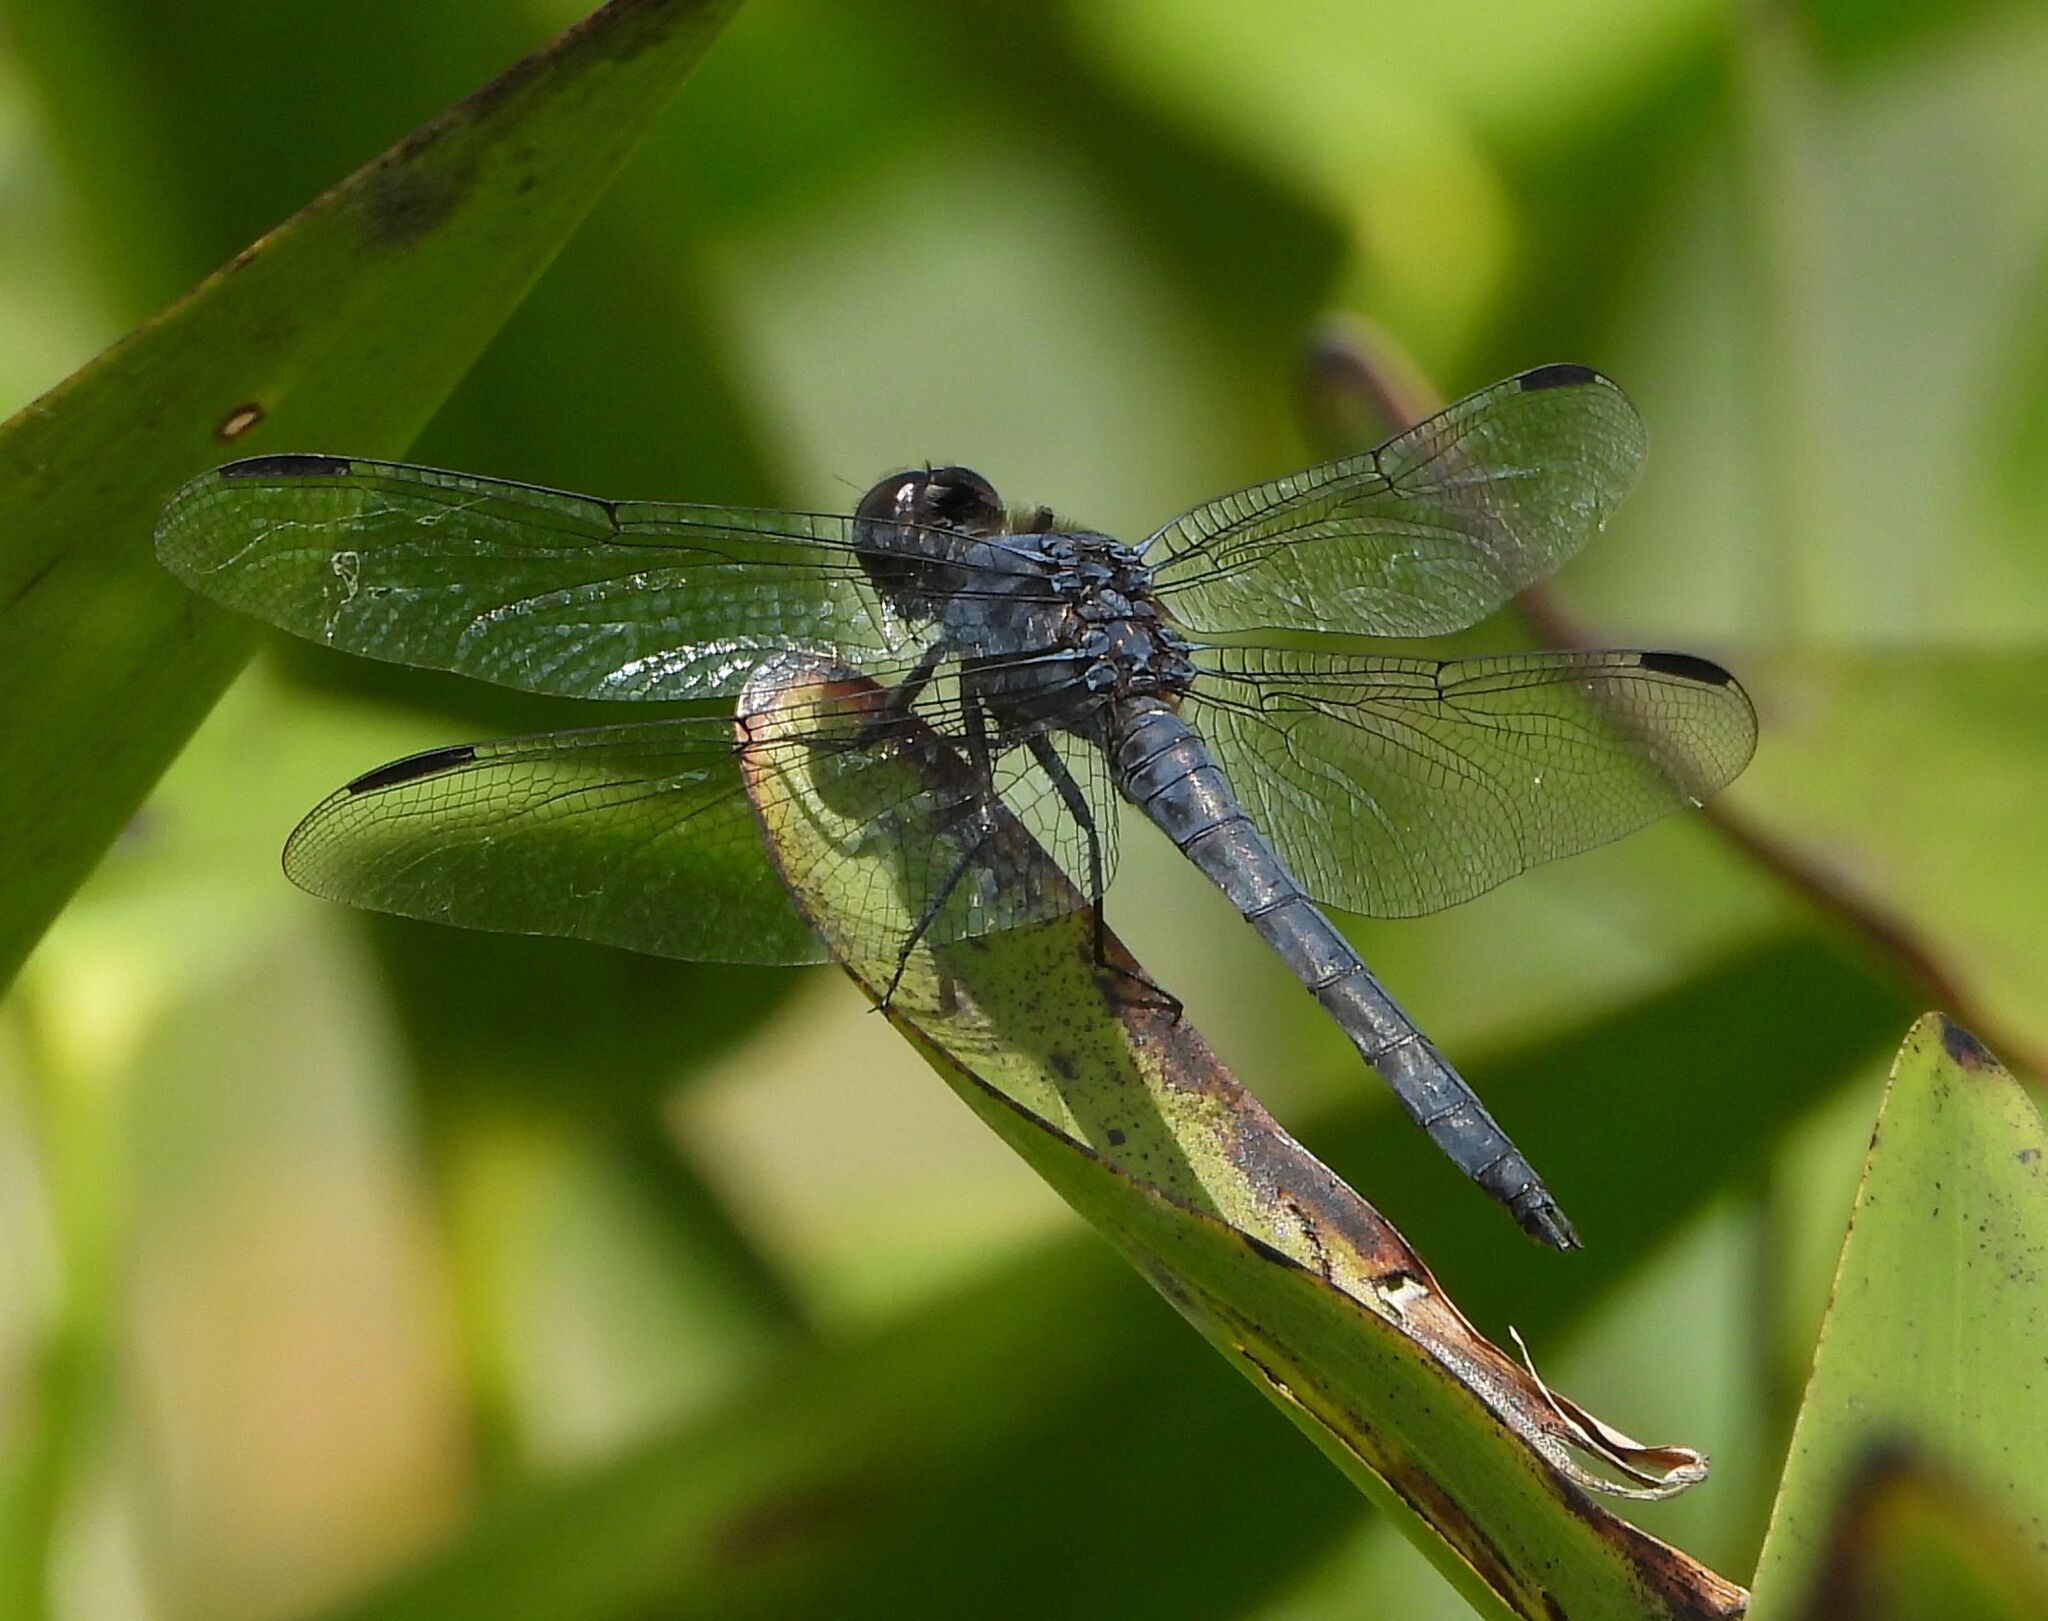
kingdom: Animalia
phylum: Arthropoda
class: Insecta
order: Odonata
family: Libellulidae
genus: Libellula
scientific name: Libellula incesta
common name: Slaty skimmer
